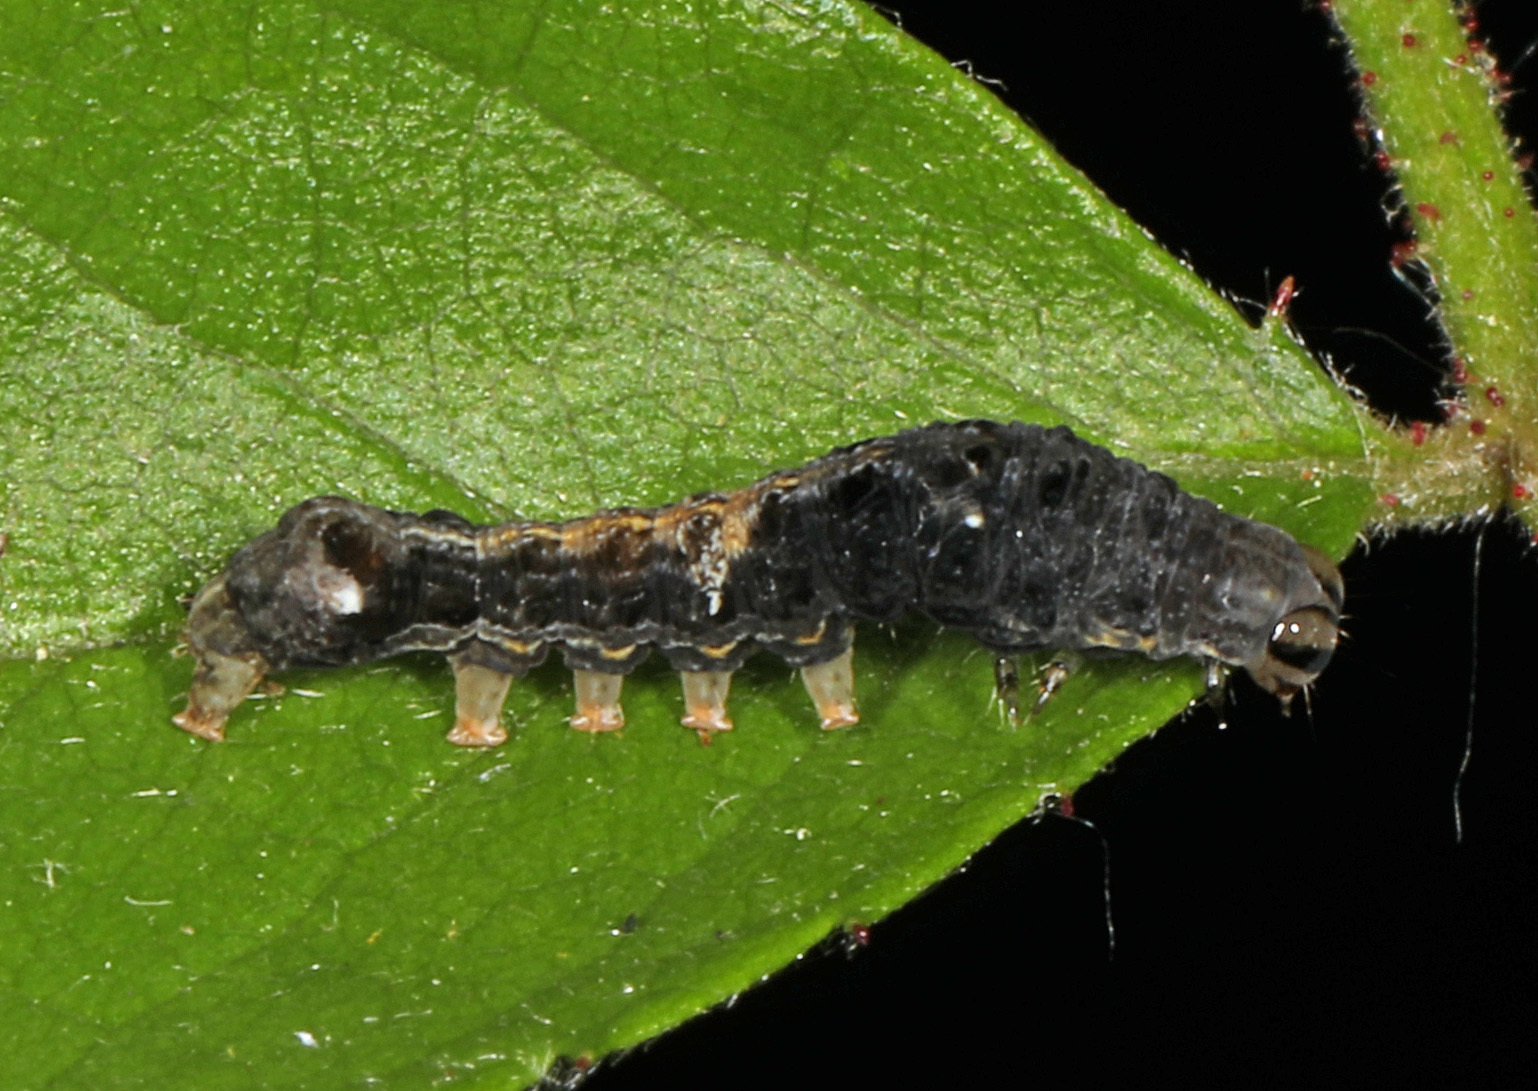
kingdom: Animalia
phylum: Arthropoda
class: Insecta
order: Lepidoptera
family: Noctuidae
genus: Elaphria
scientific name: Elaphria versicolor
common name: Fir harlequin
